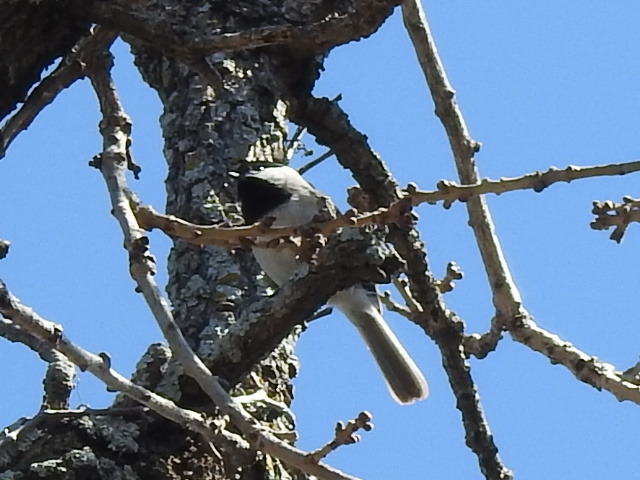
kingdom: Animalia
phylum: Chordata
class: Aves
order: Passeriformes
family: Paridae
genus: Poecile
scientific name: Poecile carolinensis
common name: Carolina chickadee
